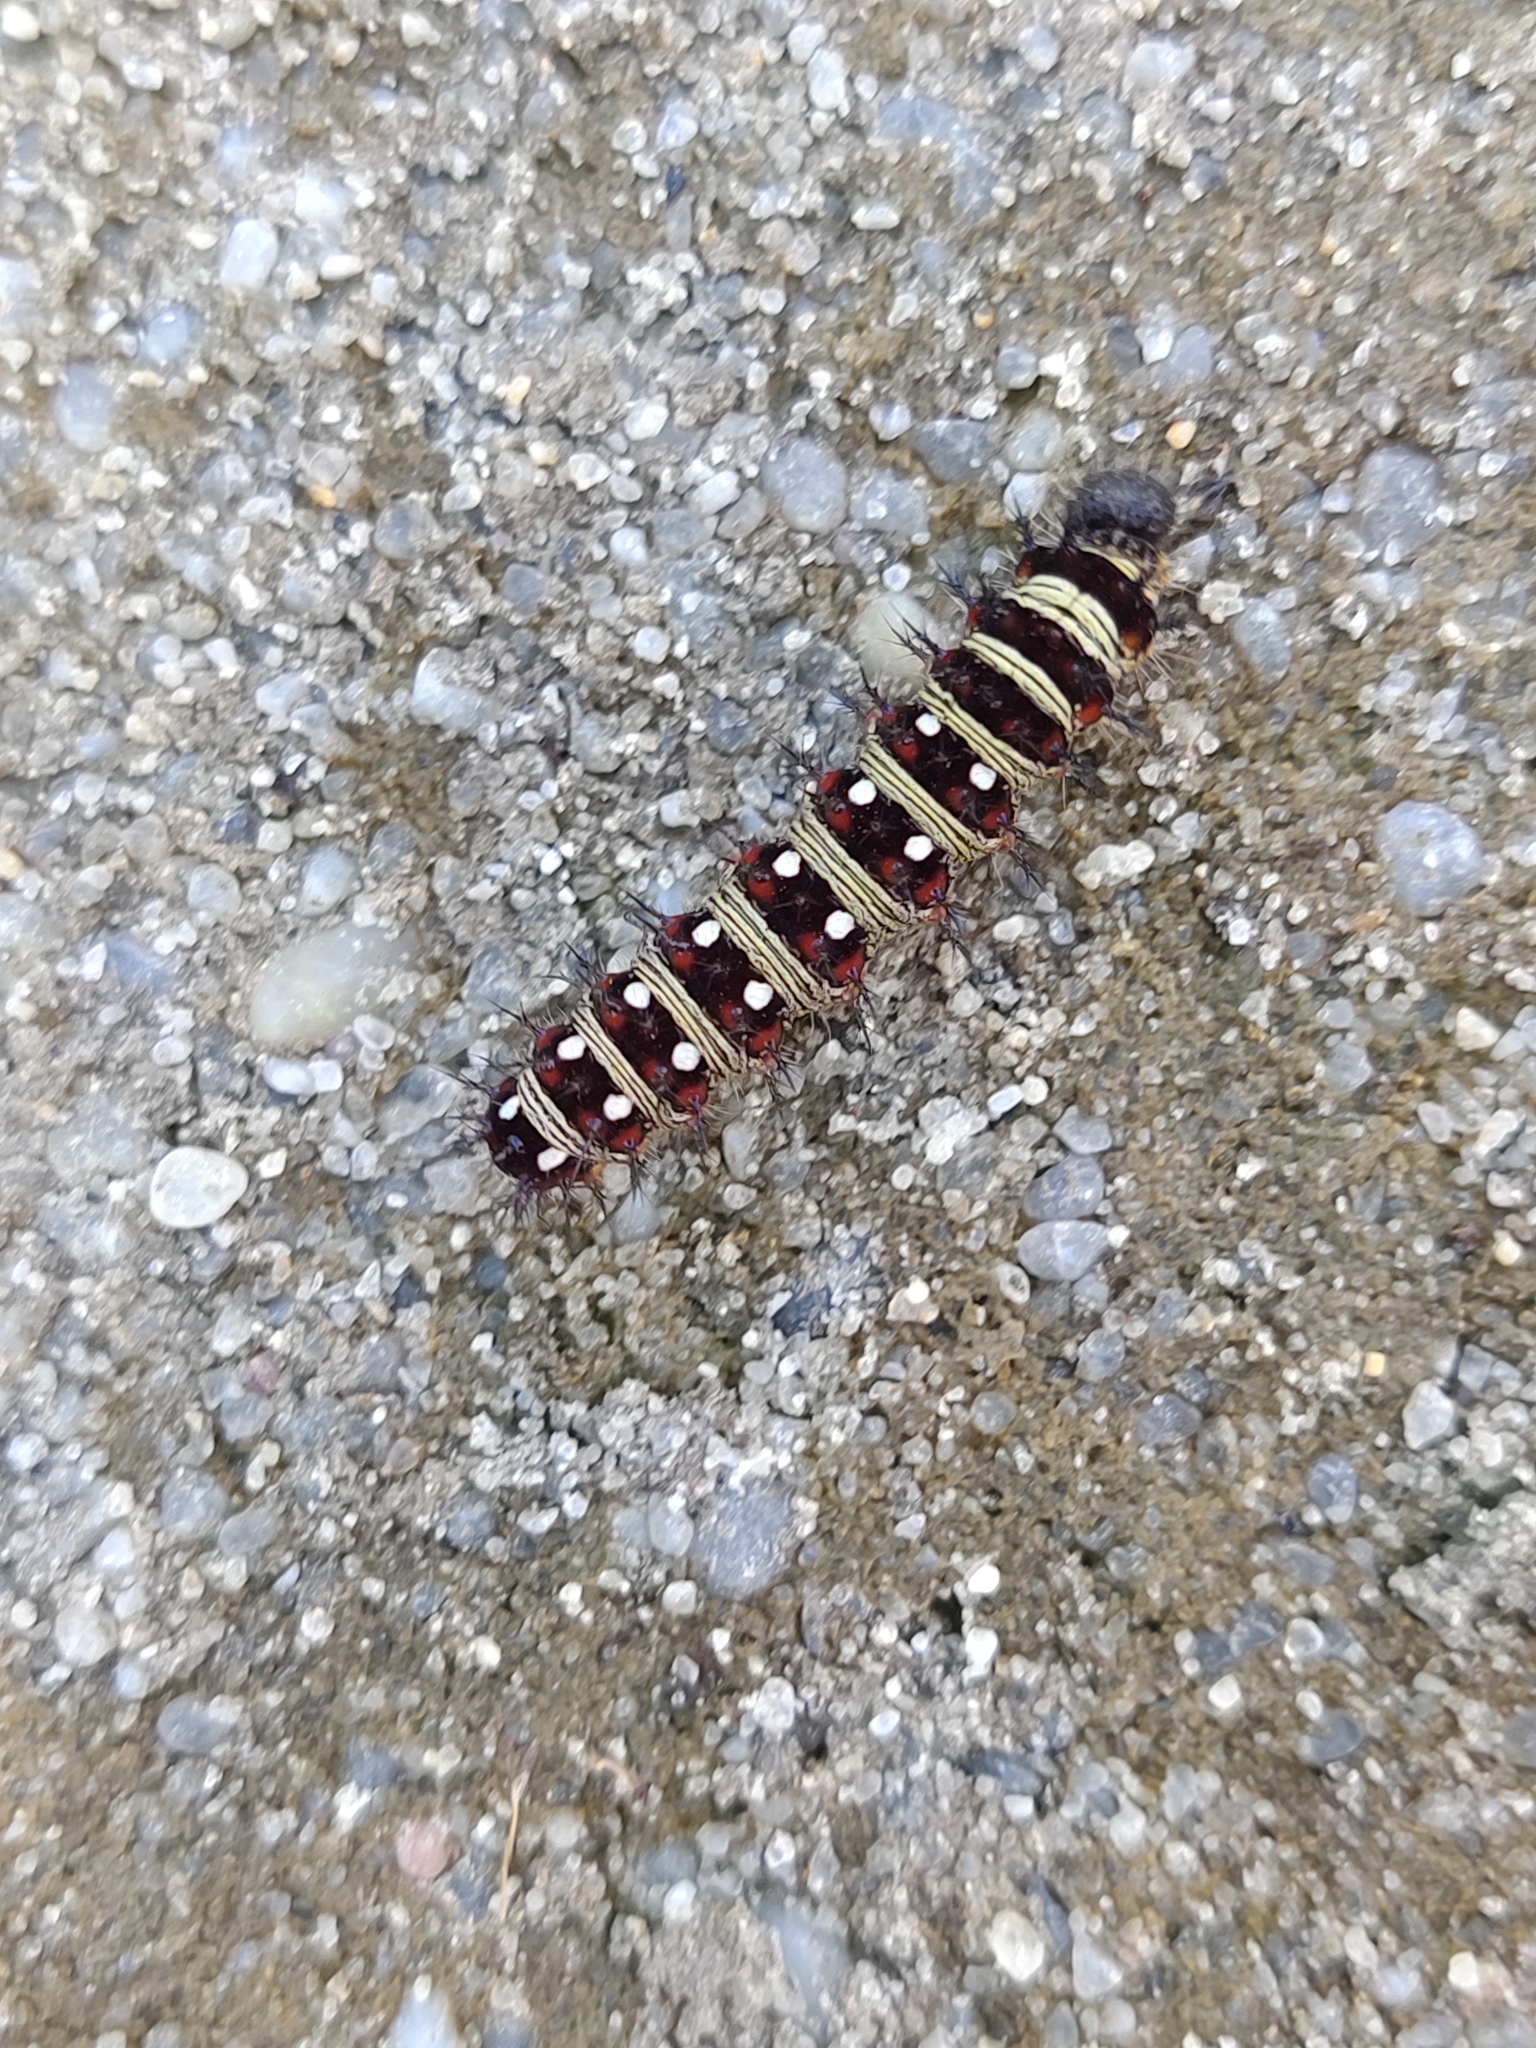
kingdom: Animalia
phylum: Arthropoda
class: Insecta
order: Lepidoptera
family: Nymphalidae
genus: Vanessa
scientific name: Vanessa virginiensis
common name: American lady
